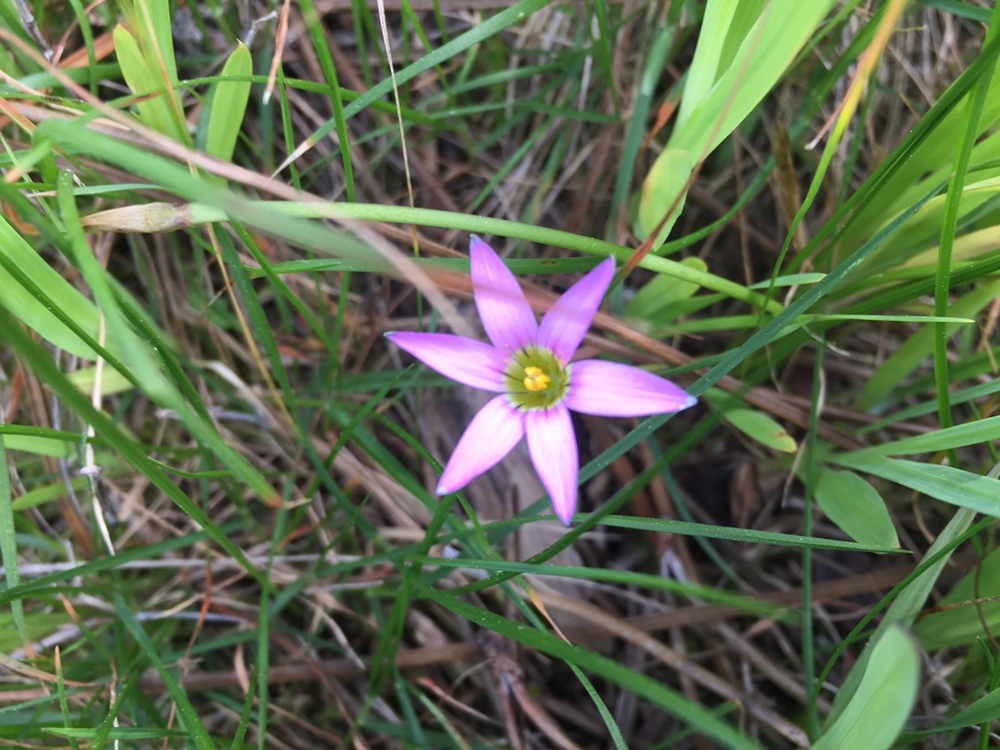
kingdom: Plantae
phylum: Tracheophyta
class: Liliopsida
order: Asparagales
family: Iridaceae
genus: Romulea
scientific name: Romulea rosea
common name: Oniongrass
